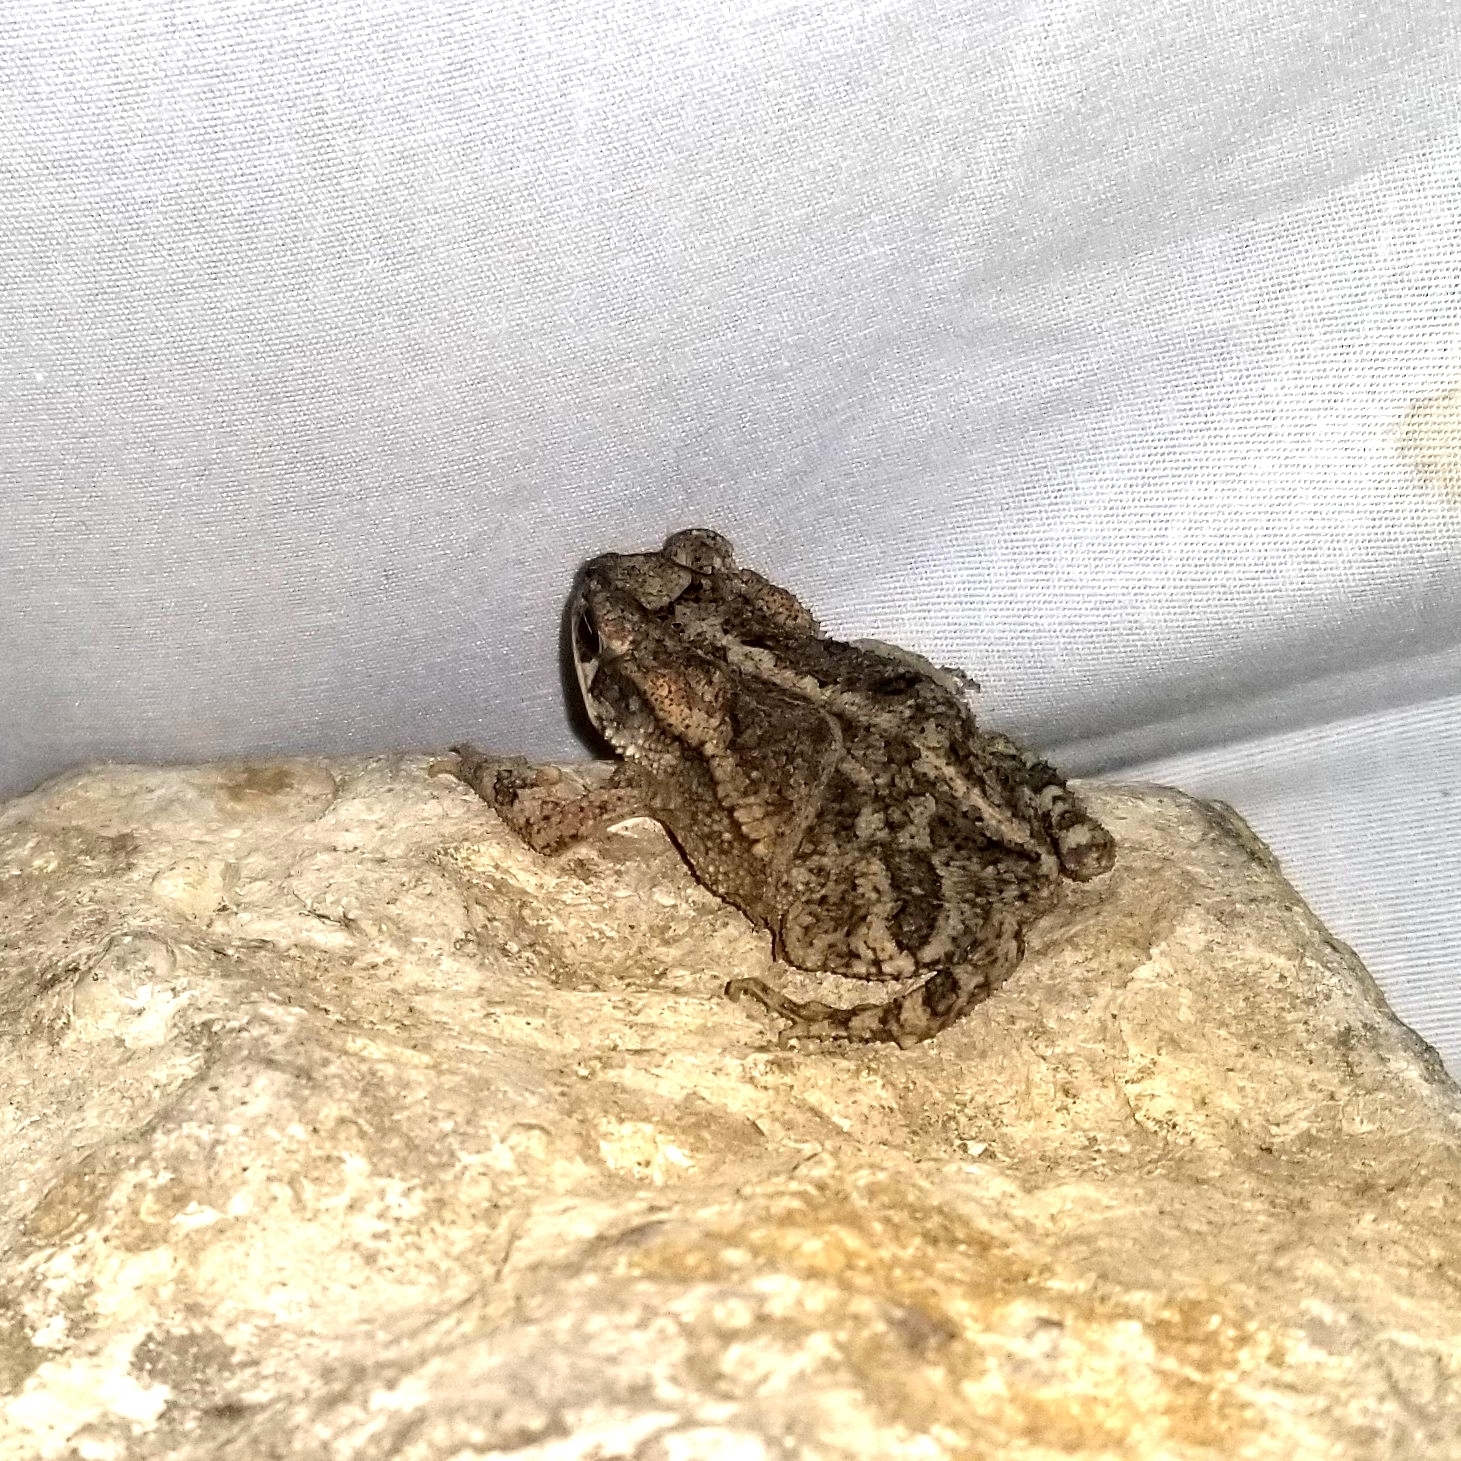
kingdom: Animalia
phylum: Chordata
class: Amphibia
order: Anura
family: Bufonidae
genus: Incilius
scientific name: Incilius nebulifer
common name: Gulf coast toad
